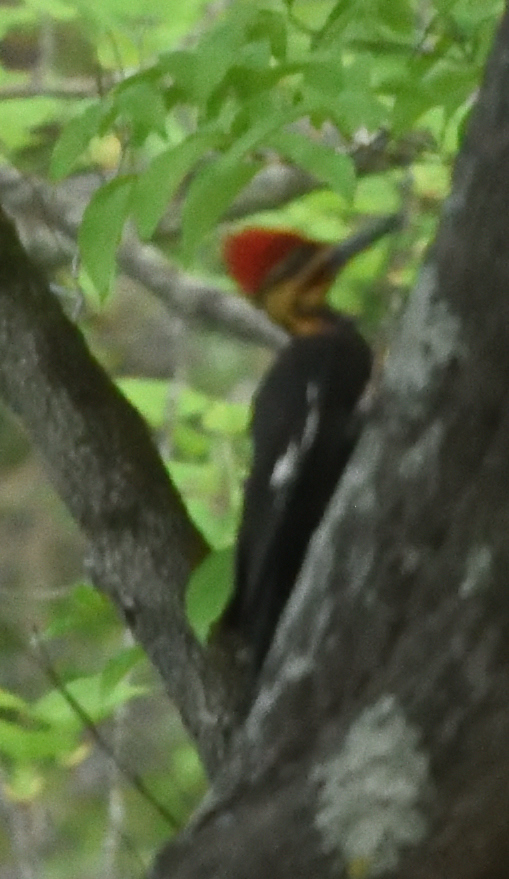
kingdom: Animalia
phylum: Chordata
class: Aves
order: Piciformes
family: Picidae
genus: Dryocopus
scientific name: Dryocopus pileatus
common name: Pileated woodpecker
